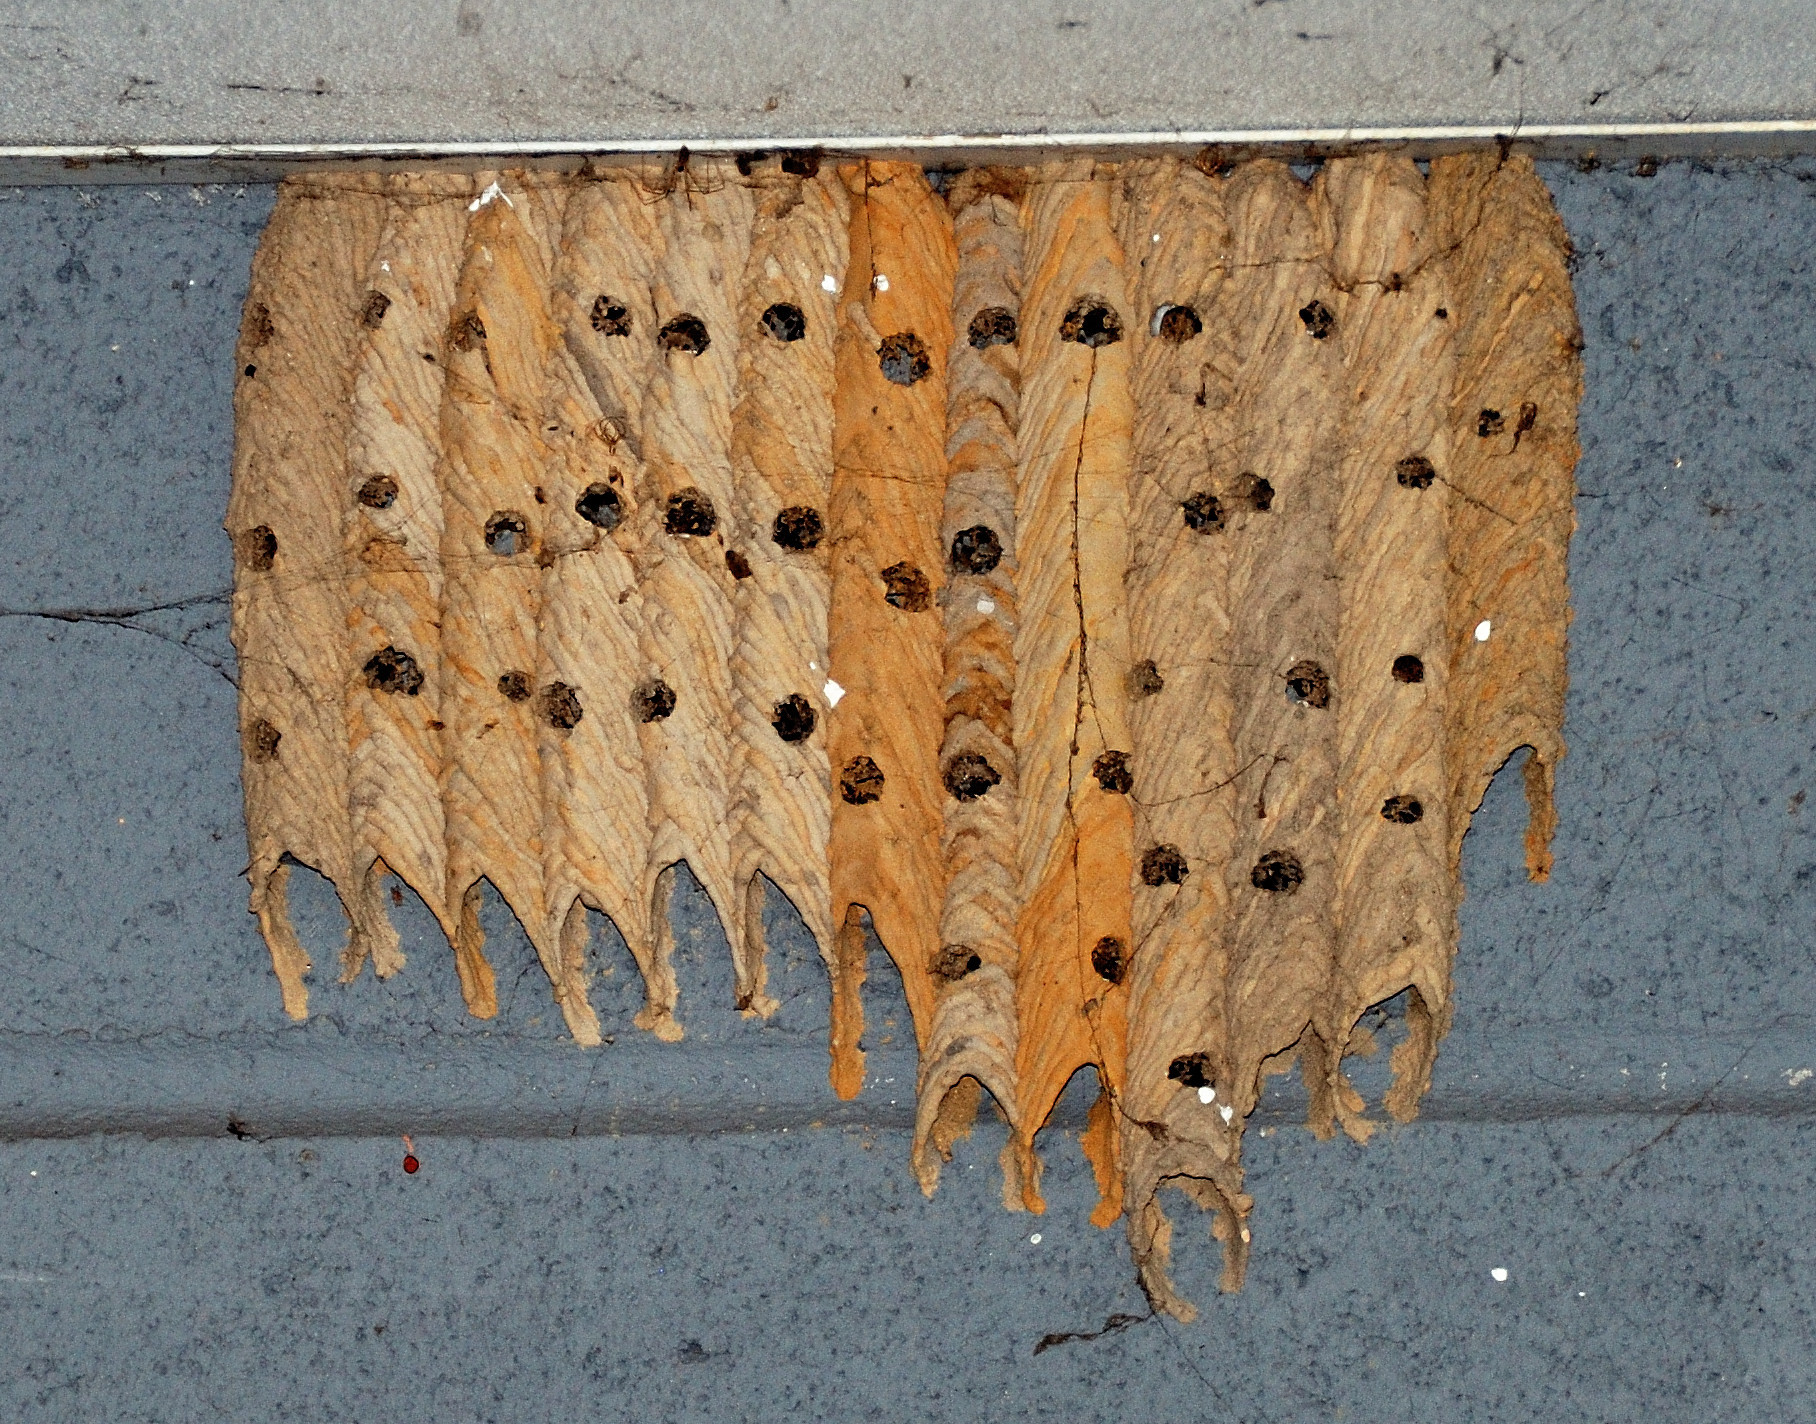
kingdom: Animalia
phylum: Arthropoda
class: Insecta
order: Hymenoptera
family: Crabronidae
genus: Trypoxylon
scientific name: Trypoxylon politum
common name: Organ-pipe mud-dauber wasp
